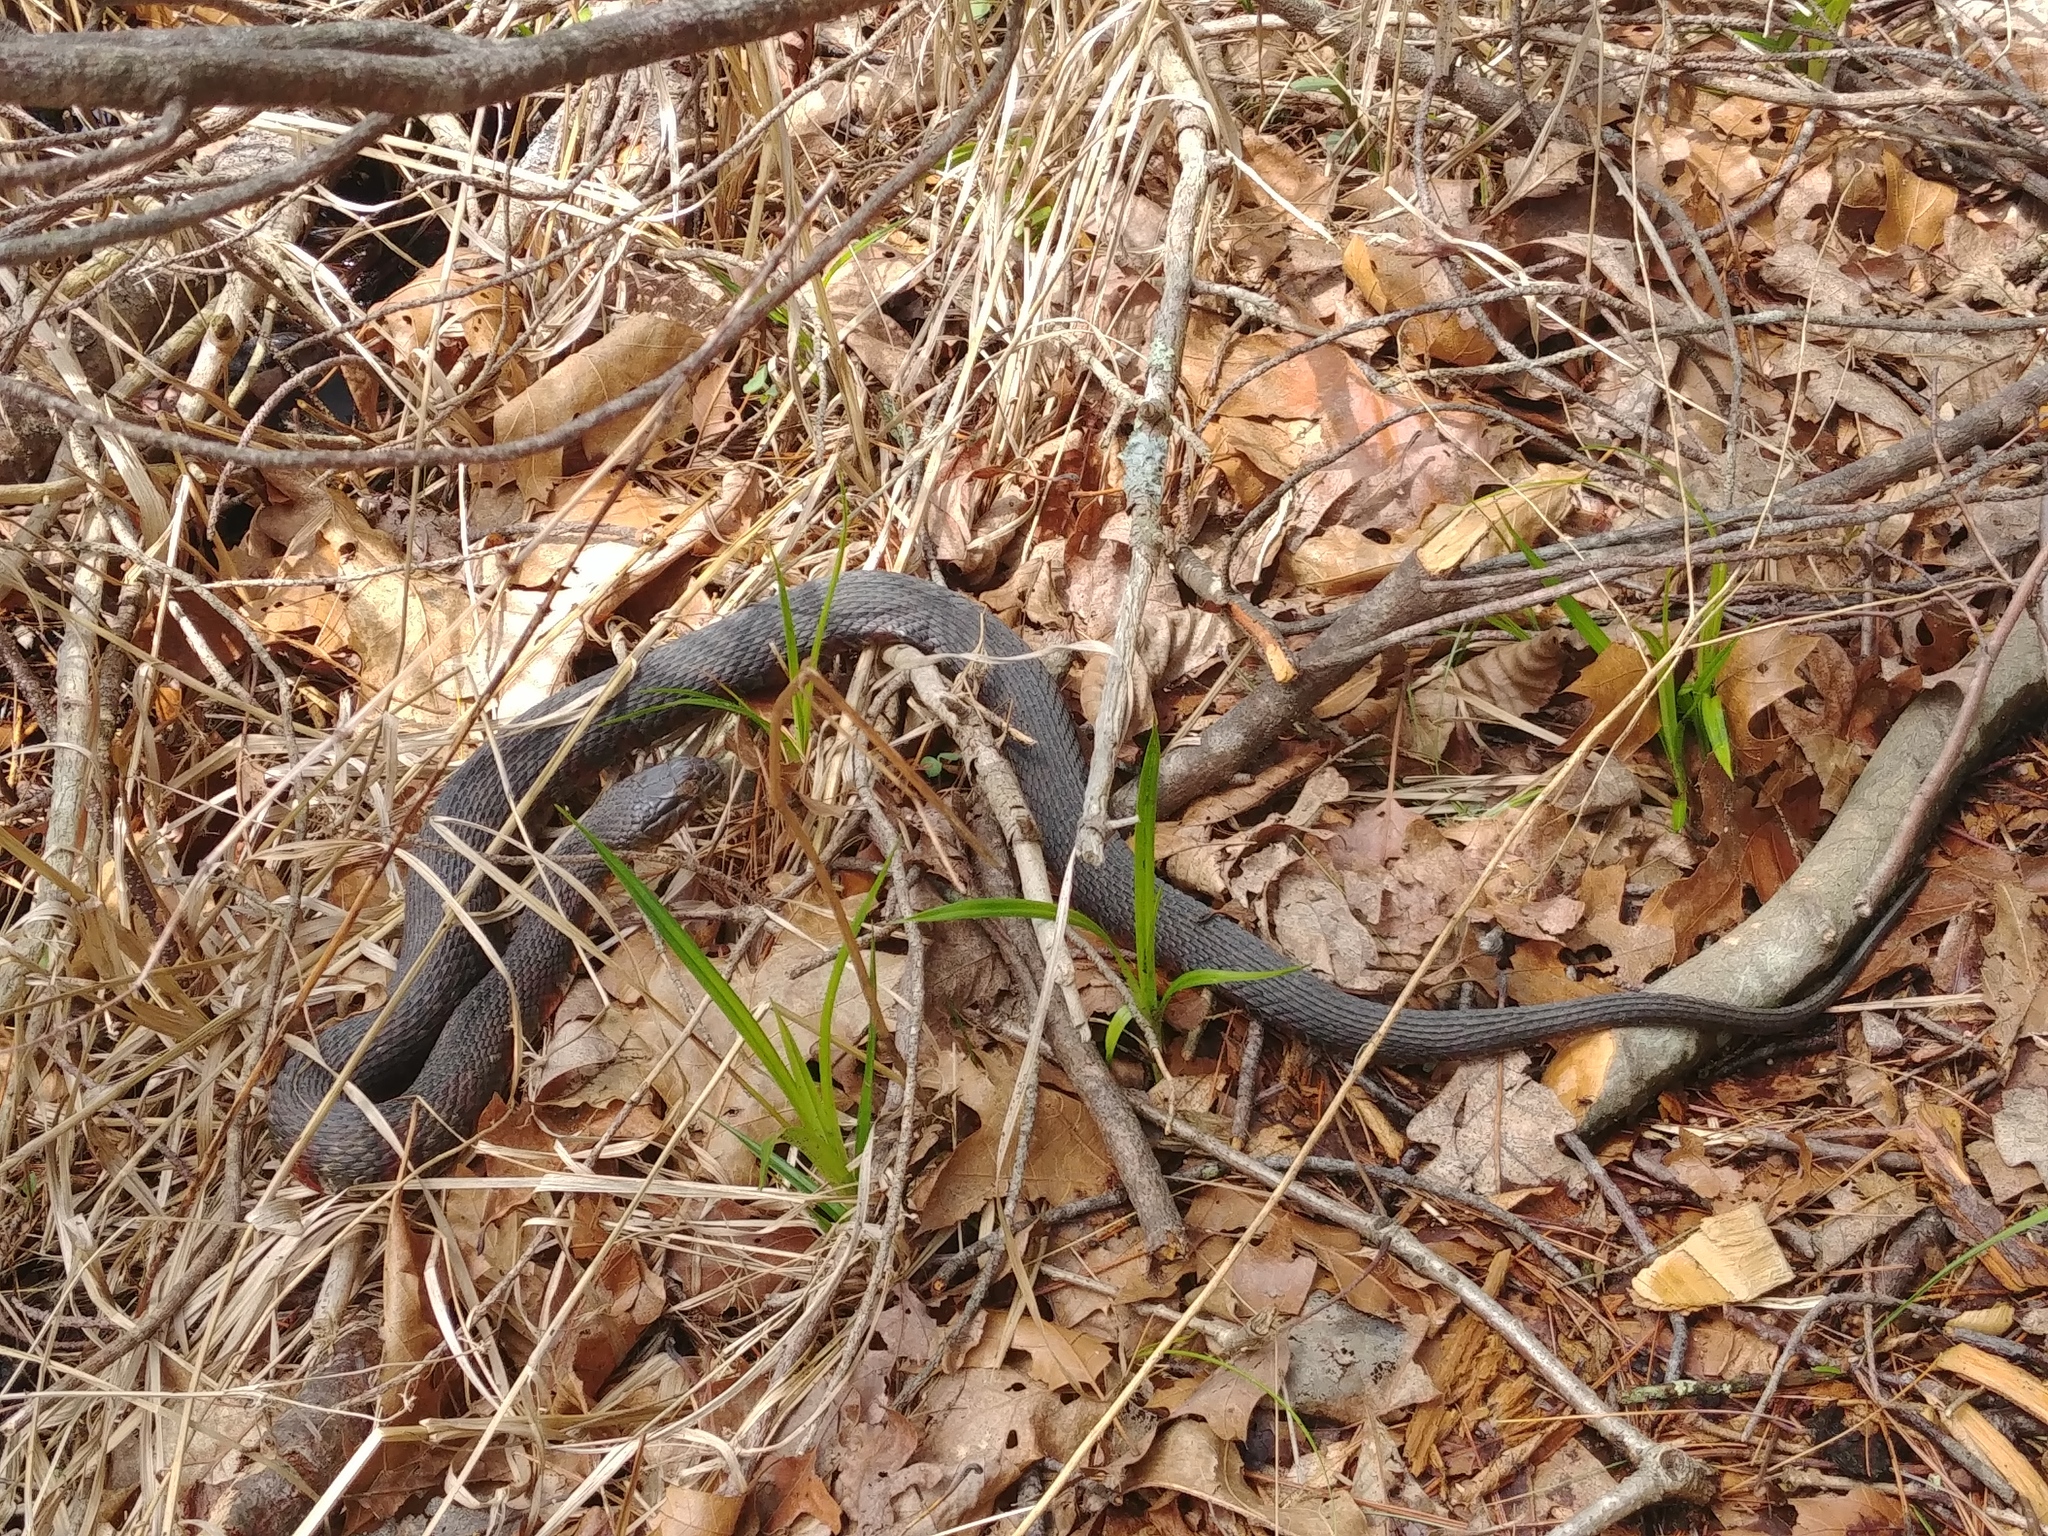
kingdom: Animalia
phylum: Chordata
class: Squamata
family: Colubridae
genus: Nerodia
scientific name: Nerodia sipedon
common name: Northern water snake
